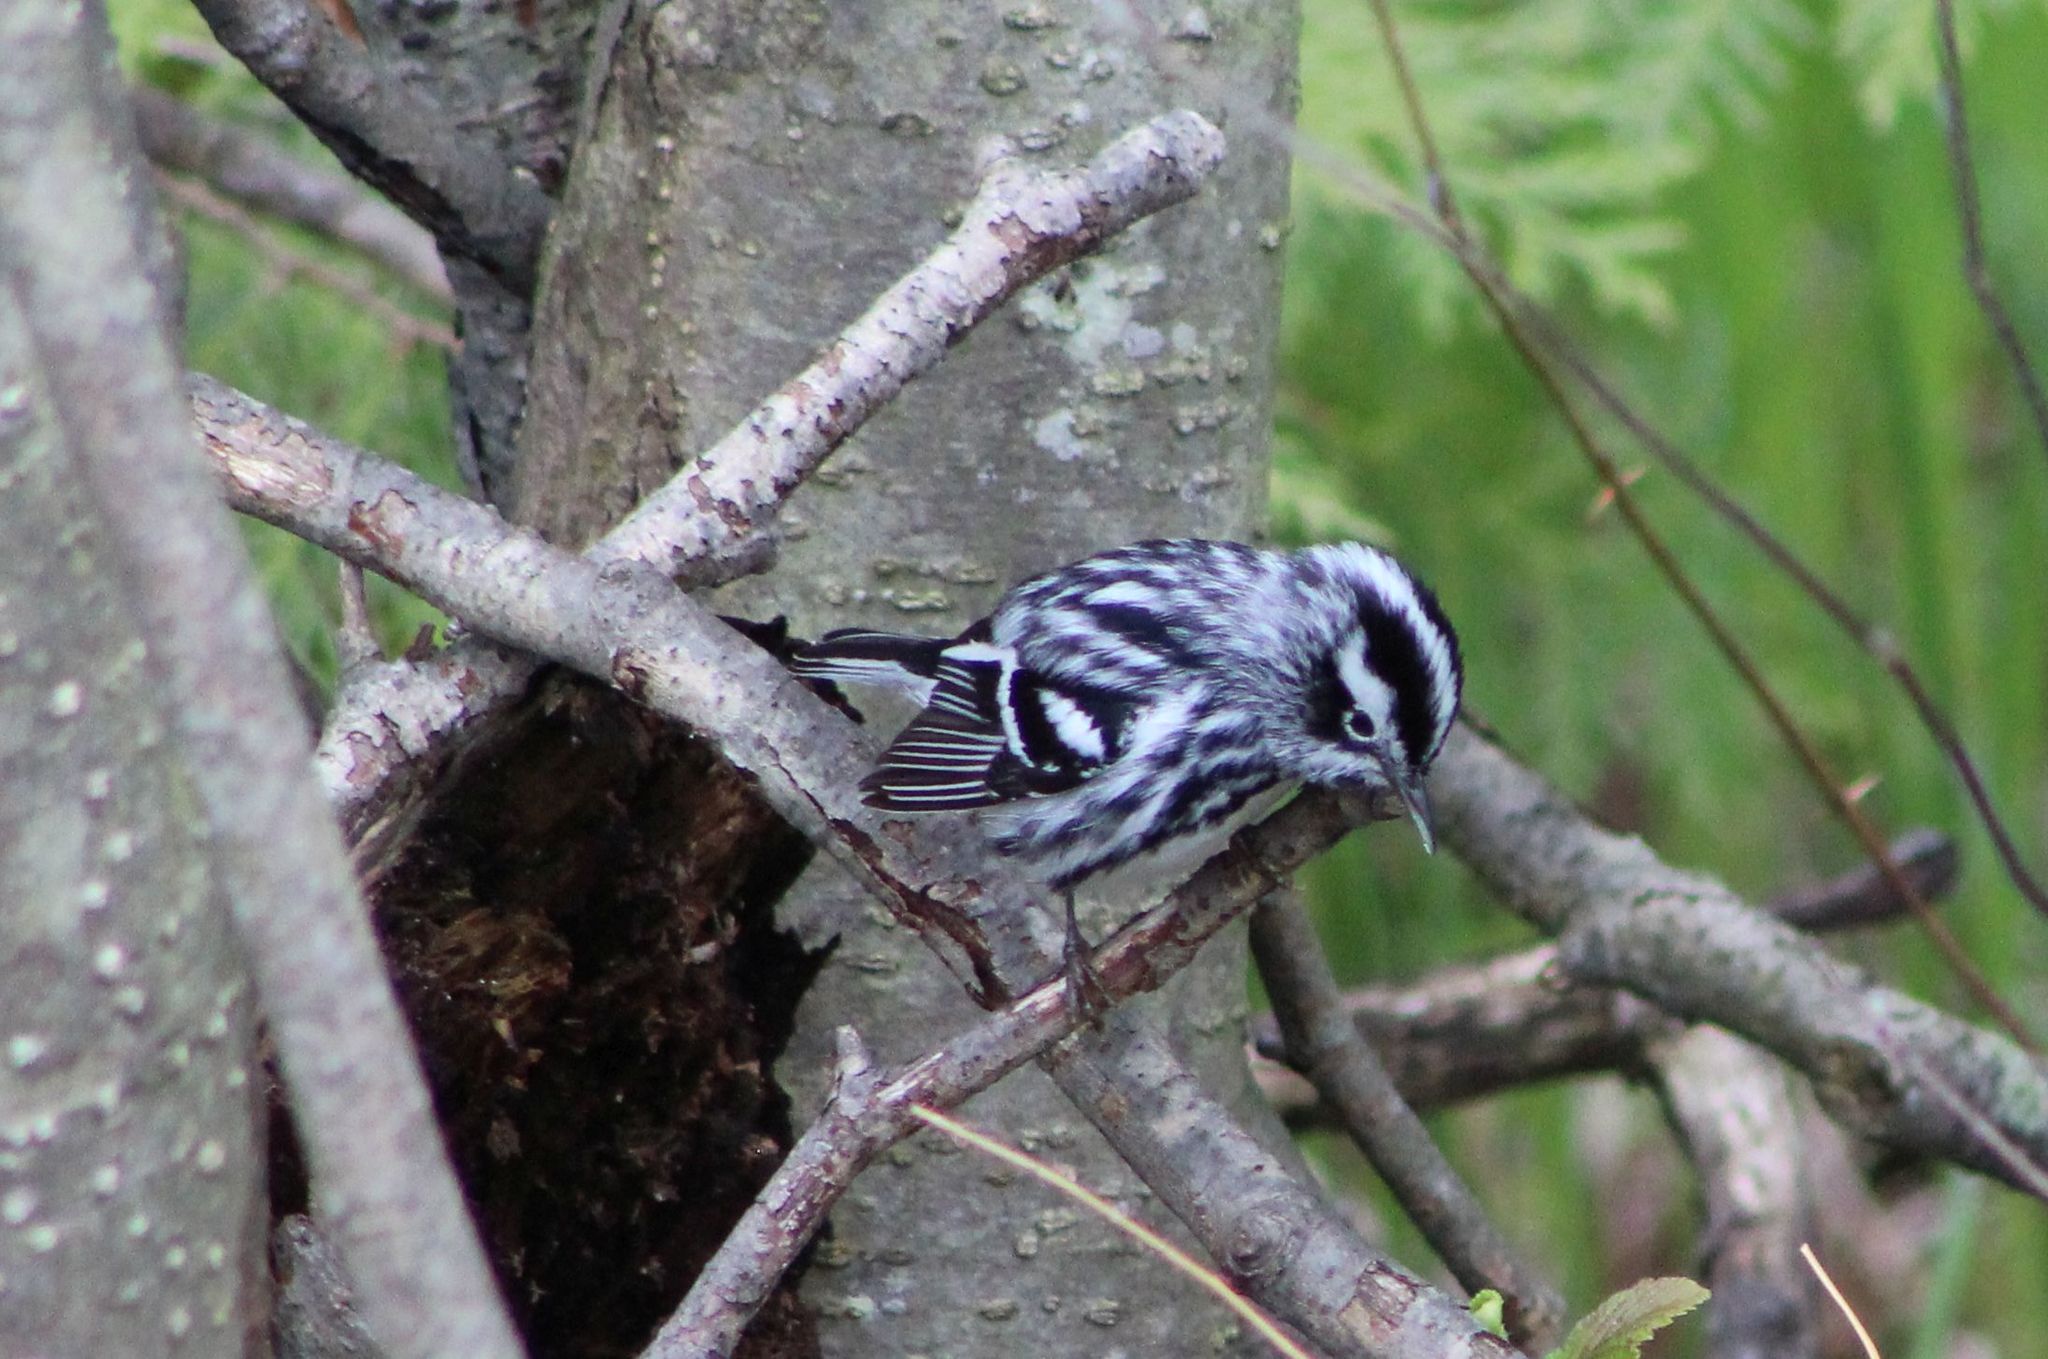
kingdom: Animalia
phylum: Chordata
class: Aves
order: Passeriformes
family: Parulidae
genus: Mniotilta
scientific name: Mniotilta varia
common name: Black-and-white warbler
